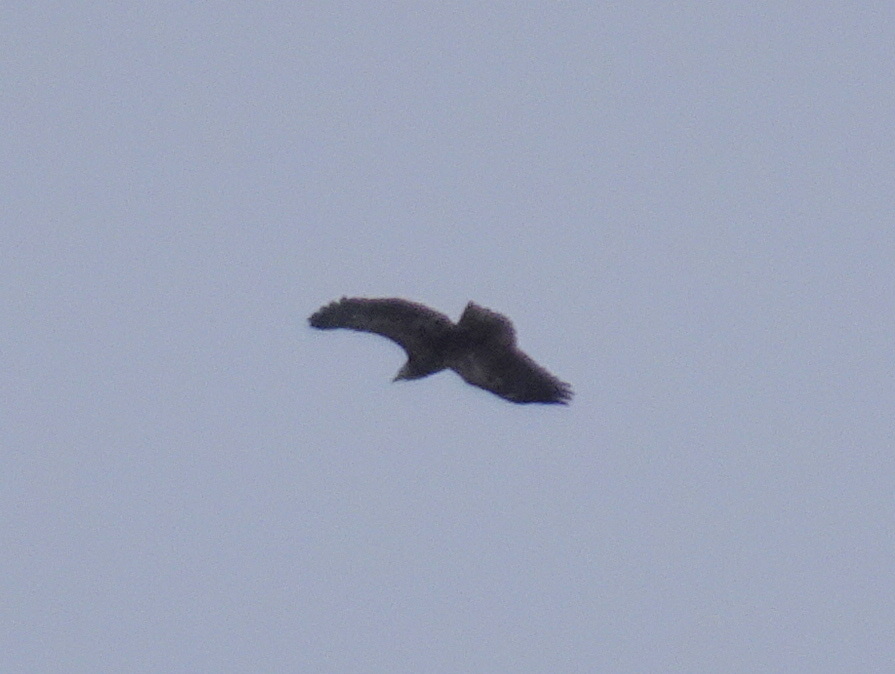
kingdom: Animalia
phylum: Chordata
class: Aves
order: Accipitriformes
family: Accipitridae
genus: Haliaeetus
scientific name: Haliaeetus leucocephalus
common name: Bald eagle
